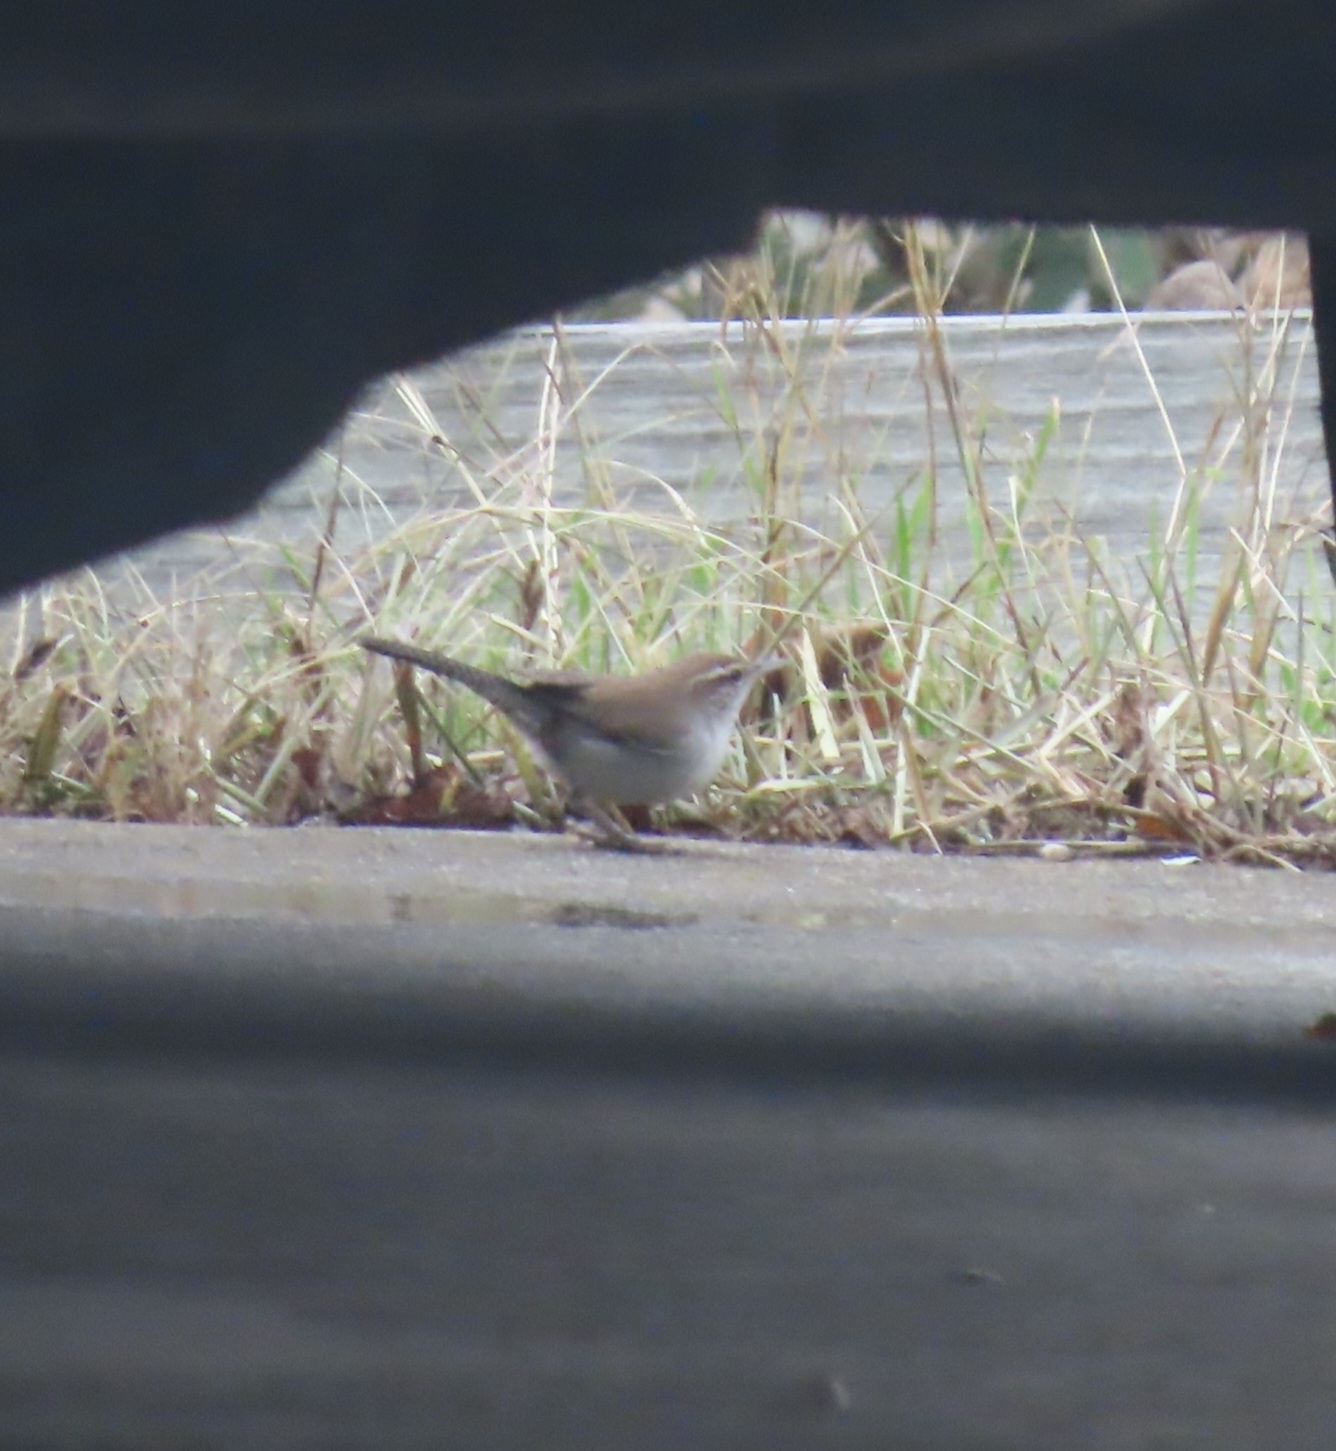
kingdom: Animalia
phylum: Chordata
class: Aves
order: Passeriformes
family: Troglodytidae
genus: Thryomanes
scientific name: Thryomanes bewickii
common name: Bewick's wren
